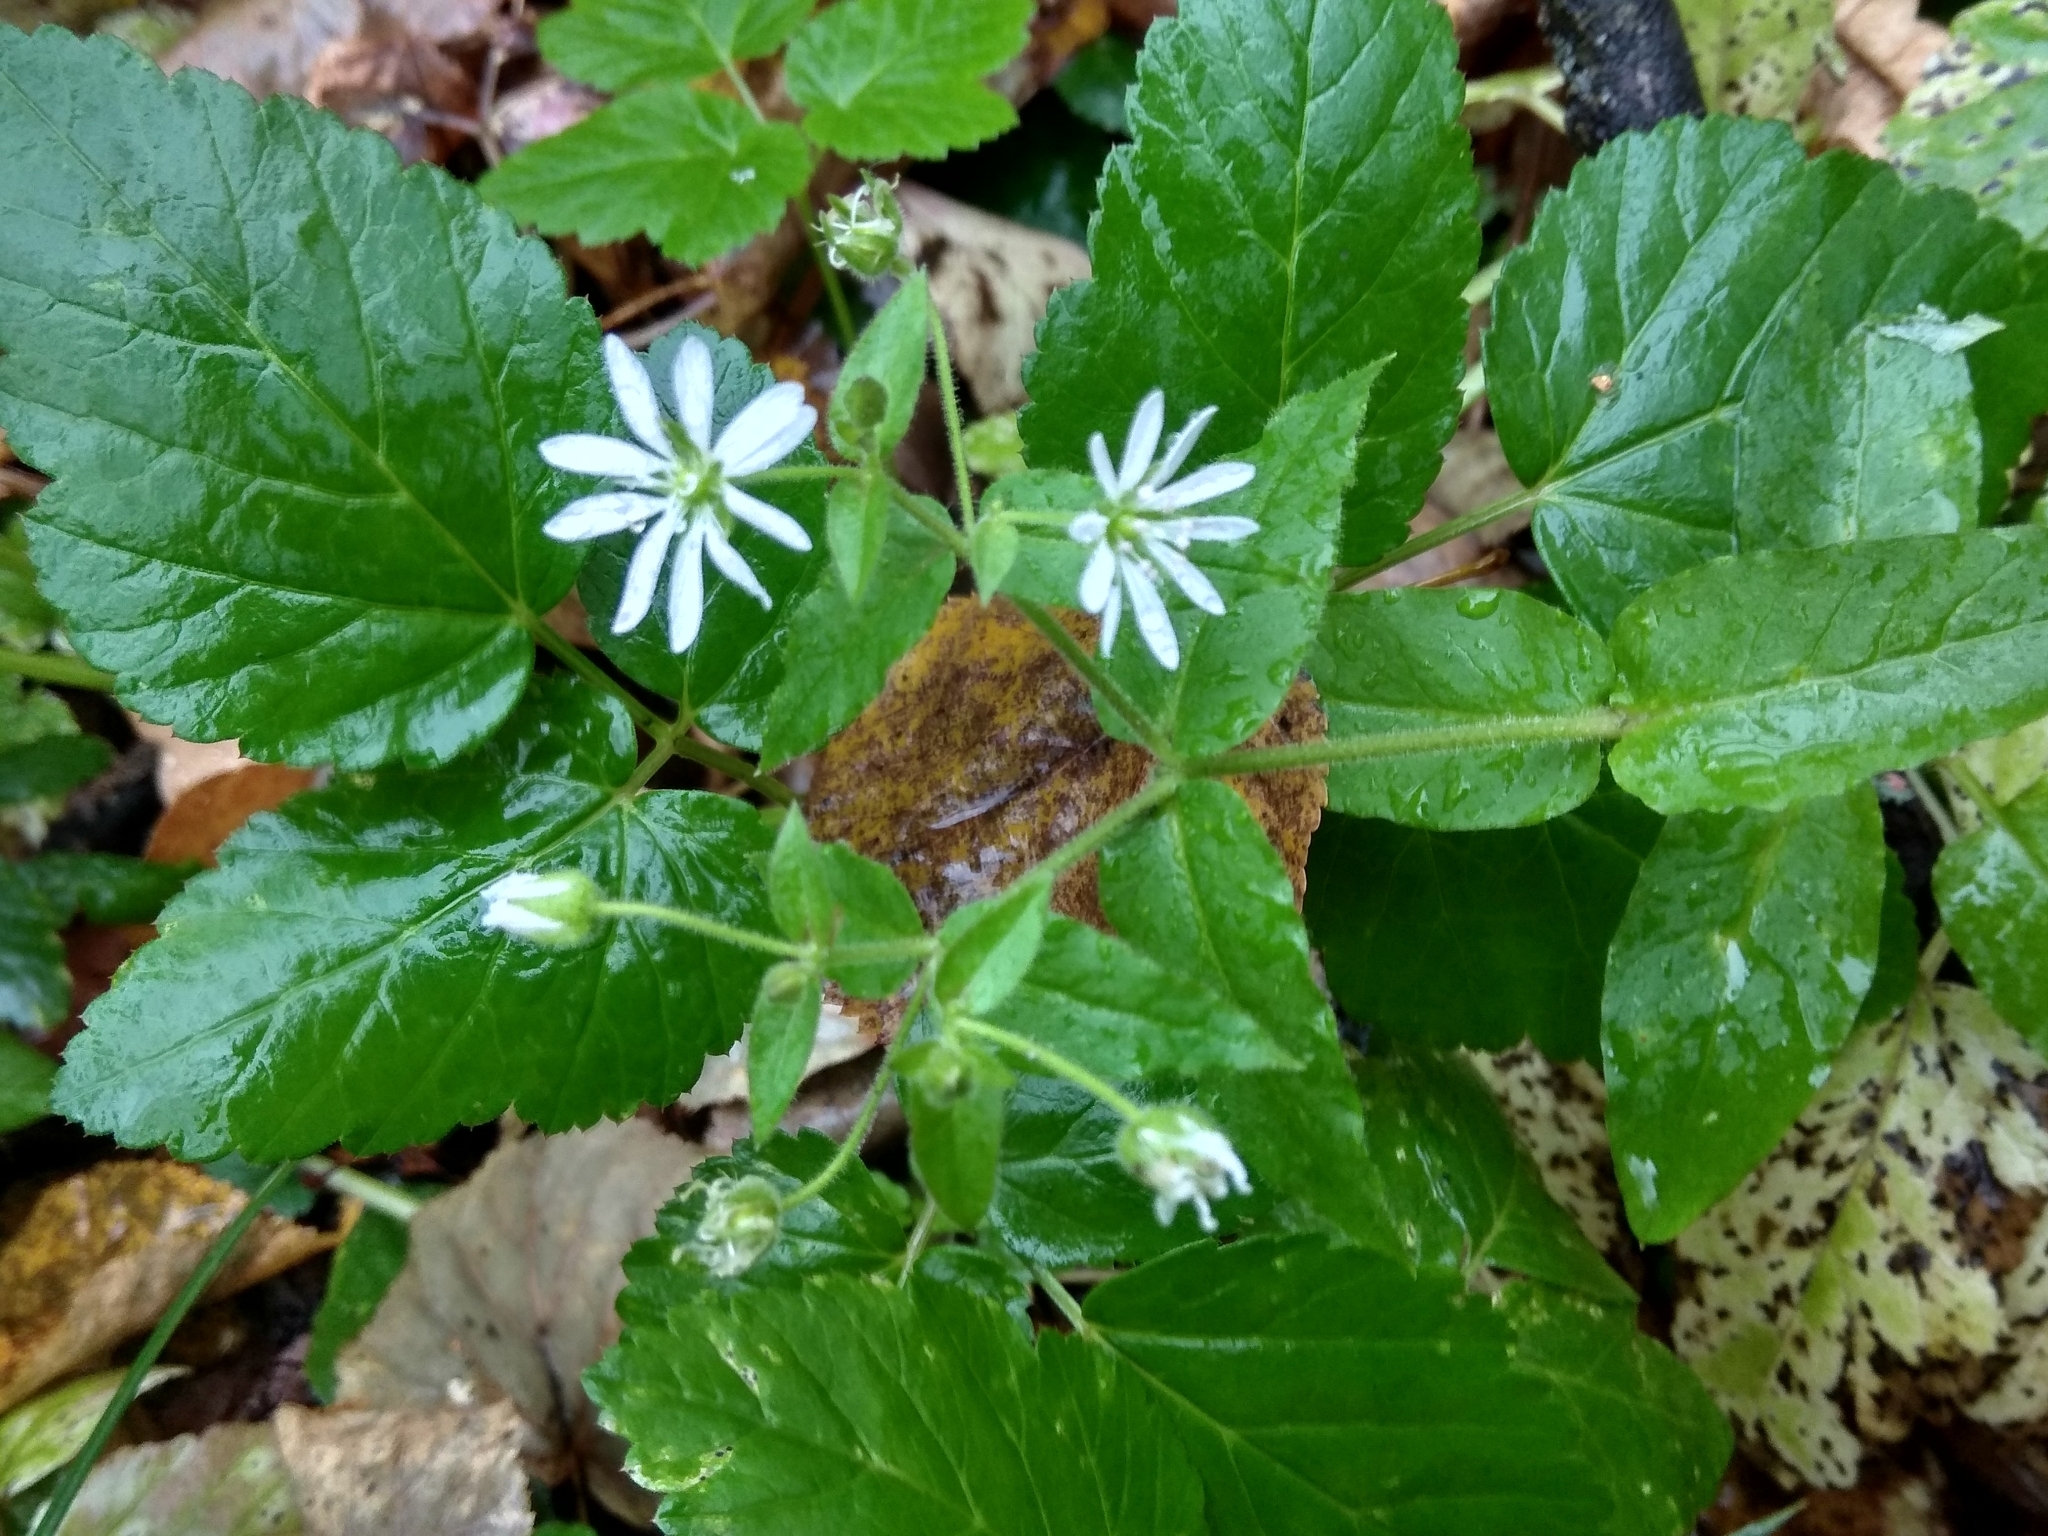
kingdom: Plantae
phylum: Tracheophyta
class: Magnoliopsida
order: Caryophyllales
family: Caryophyllaceae
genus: Stellaria
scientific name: Stellaria aquatica
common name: Water chickweed
